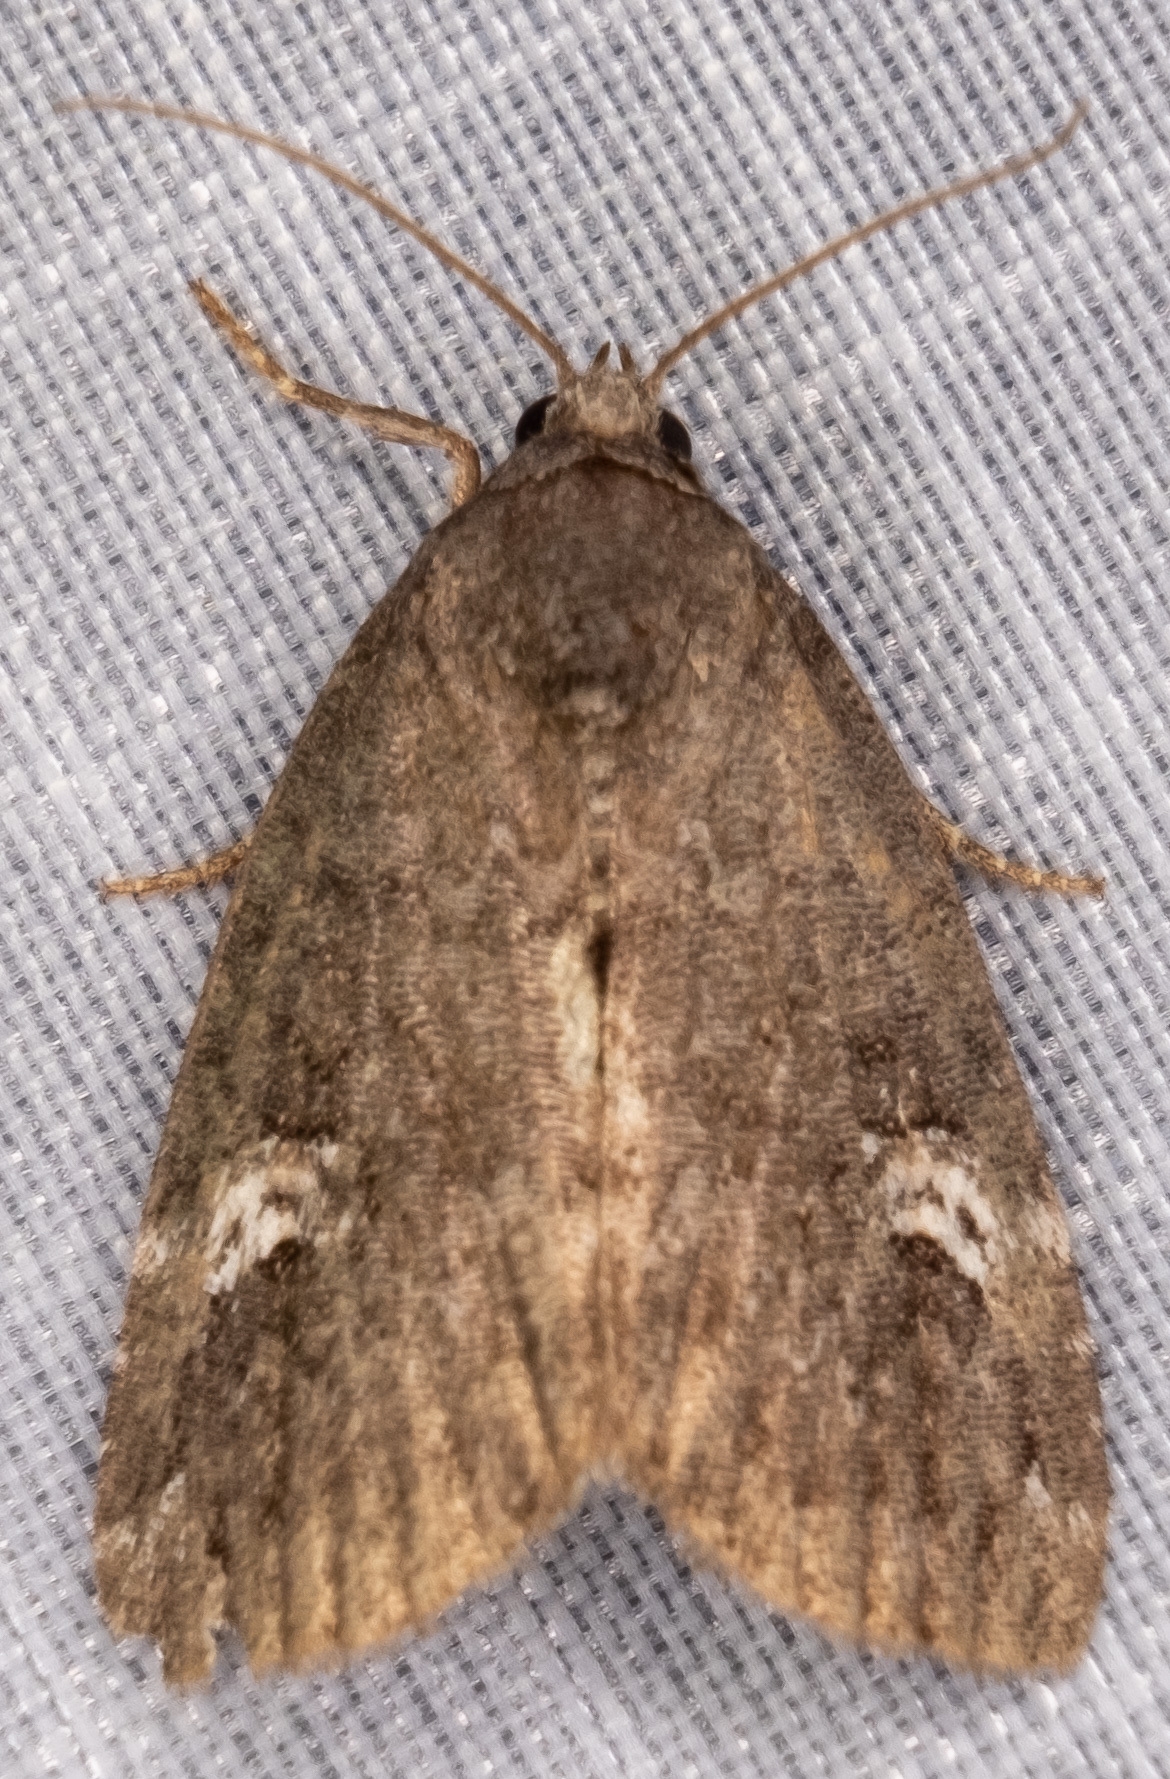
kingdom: Animalia
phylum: Arthropoda
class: Insecta
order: Lepidoptera
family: Noctuidae
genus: Anterastria
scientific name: Anterastria teratophora
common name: Gray marvel moth
